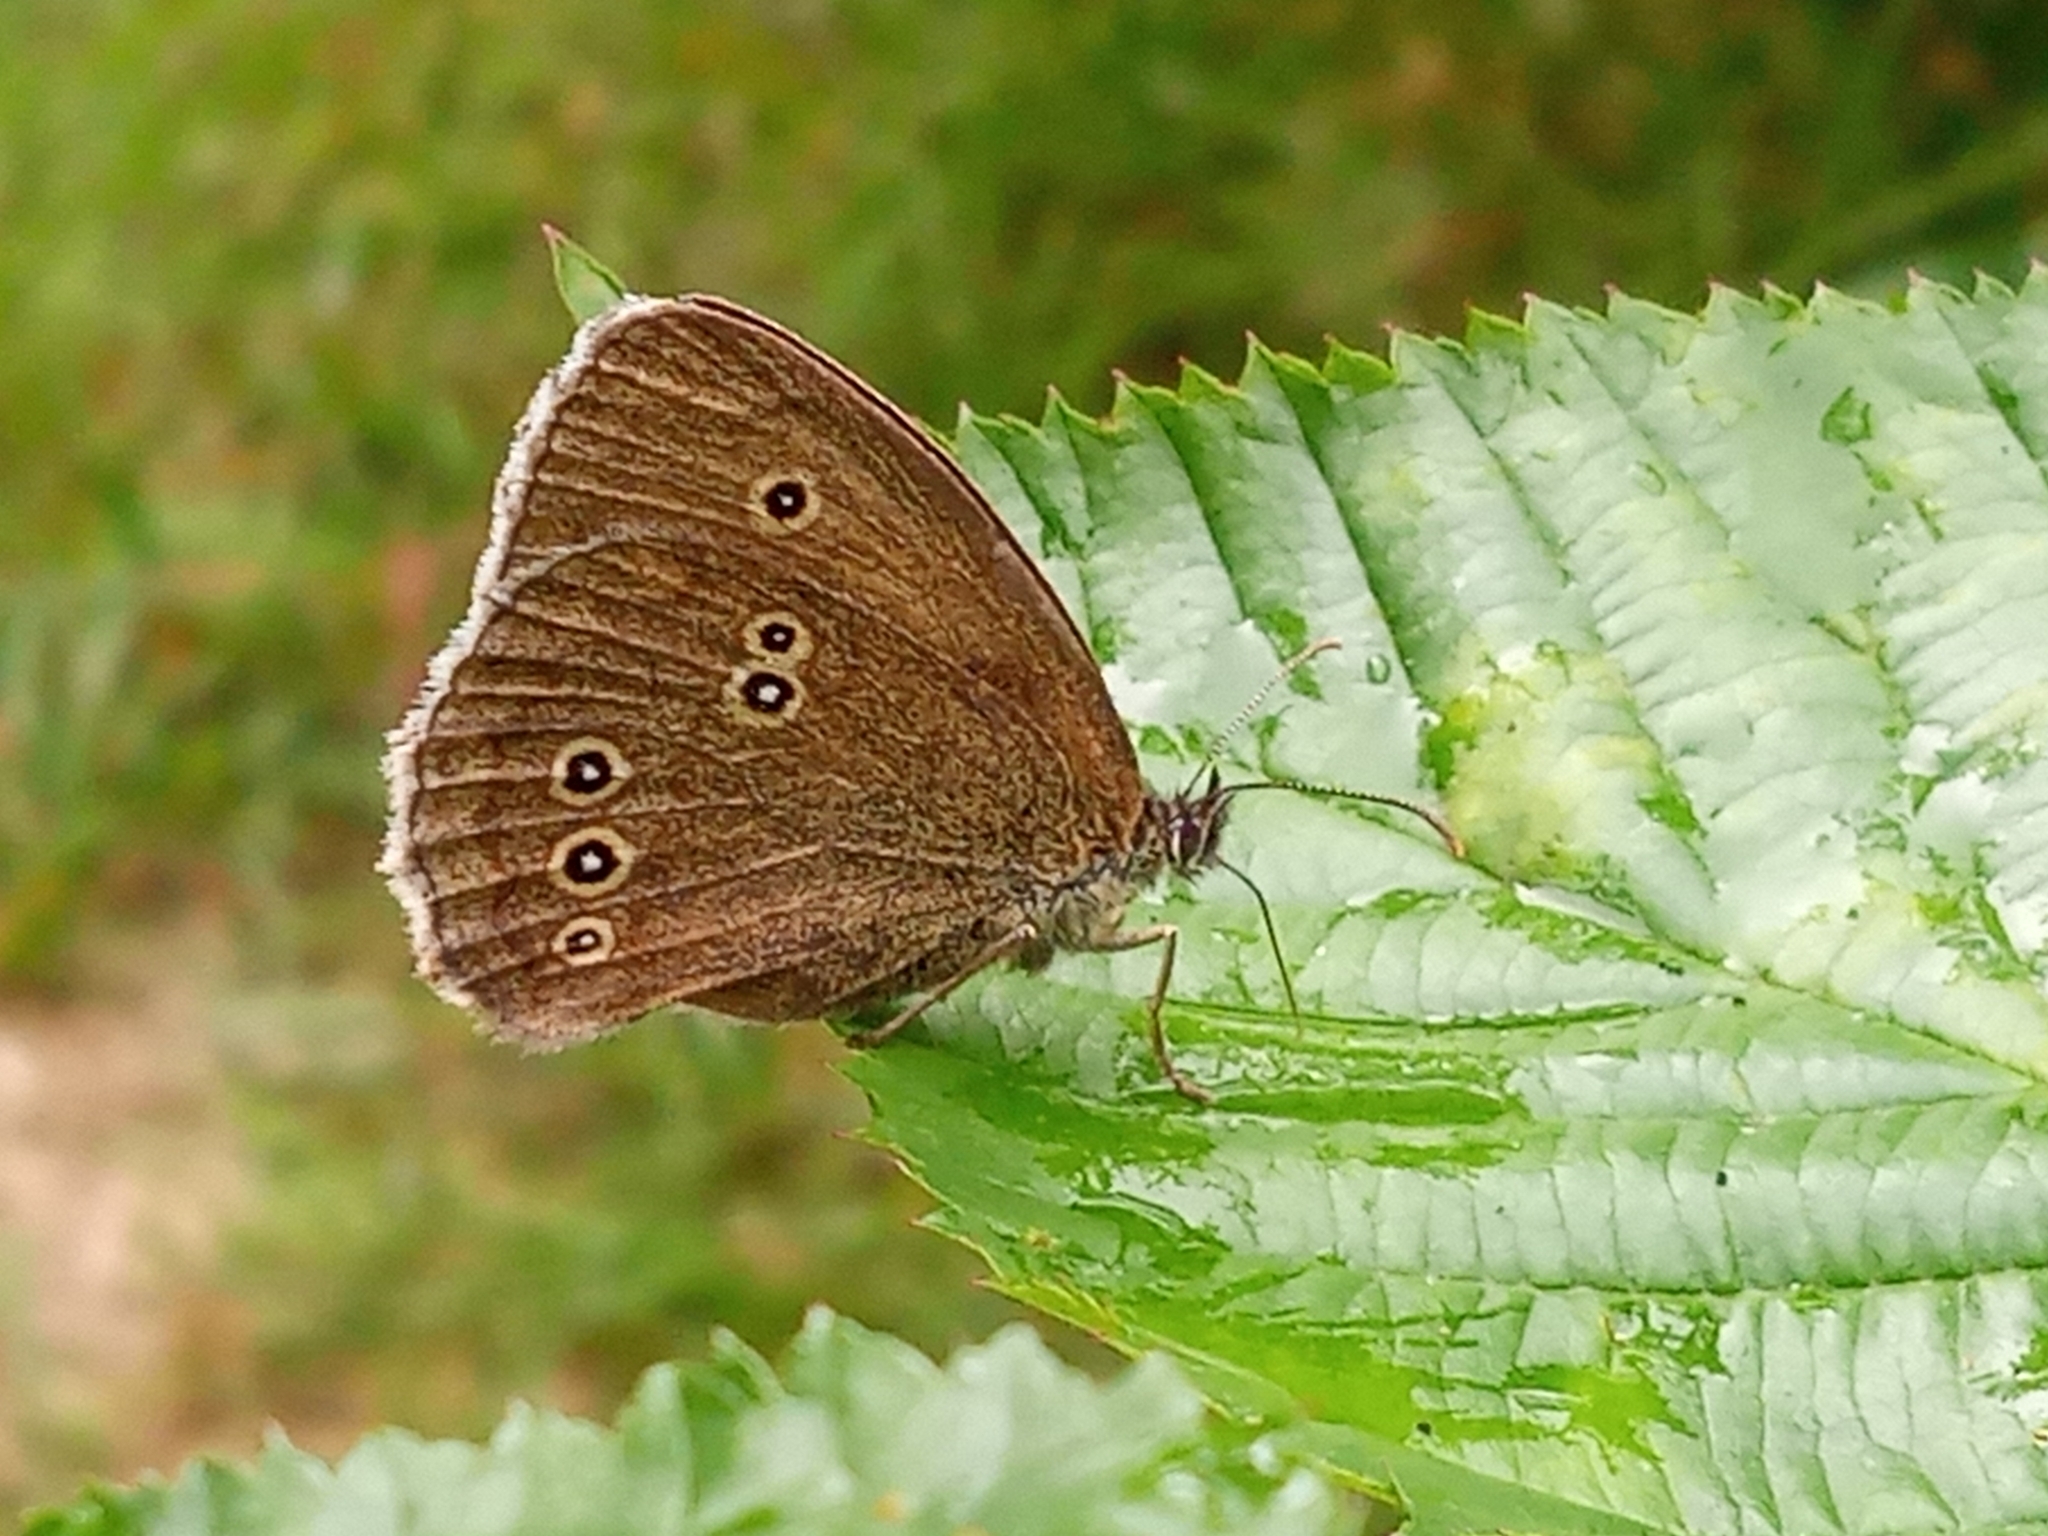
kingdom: Animalia
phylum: Arthropoda
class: Insecta
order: Lepidoptera
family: Nymphalidae
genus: Aphantopus
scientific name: Aphantopus hyperantus
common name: Ringlet
